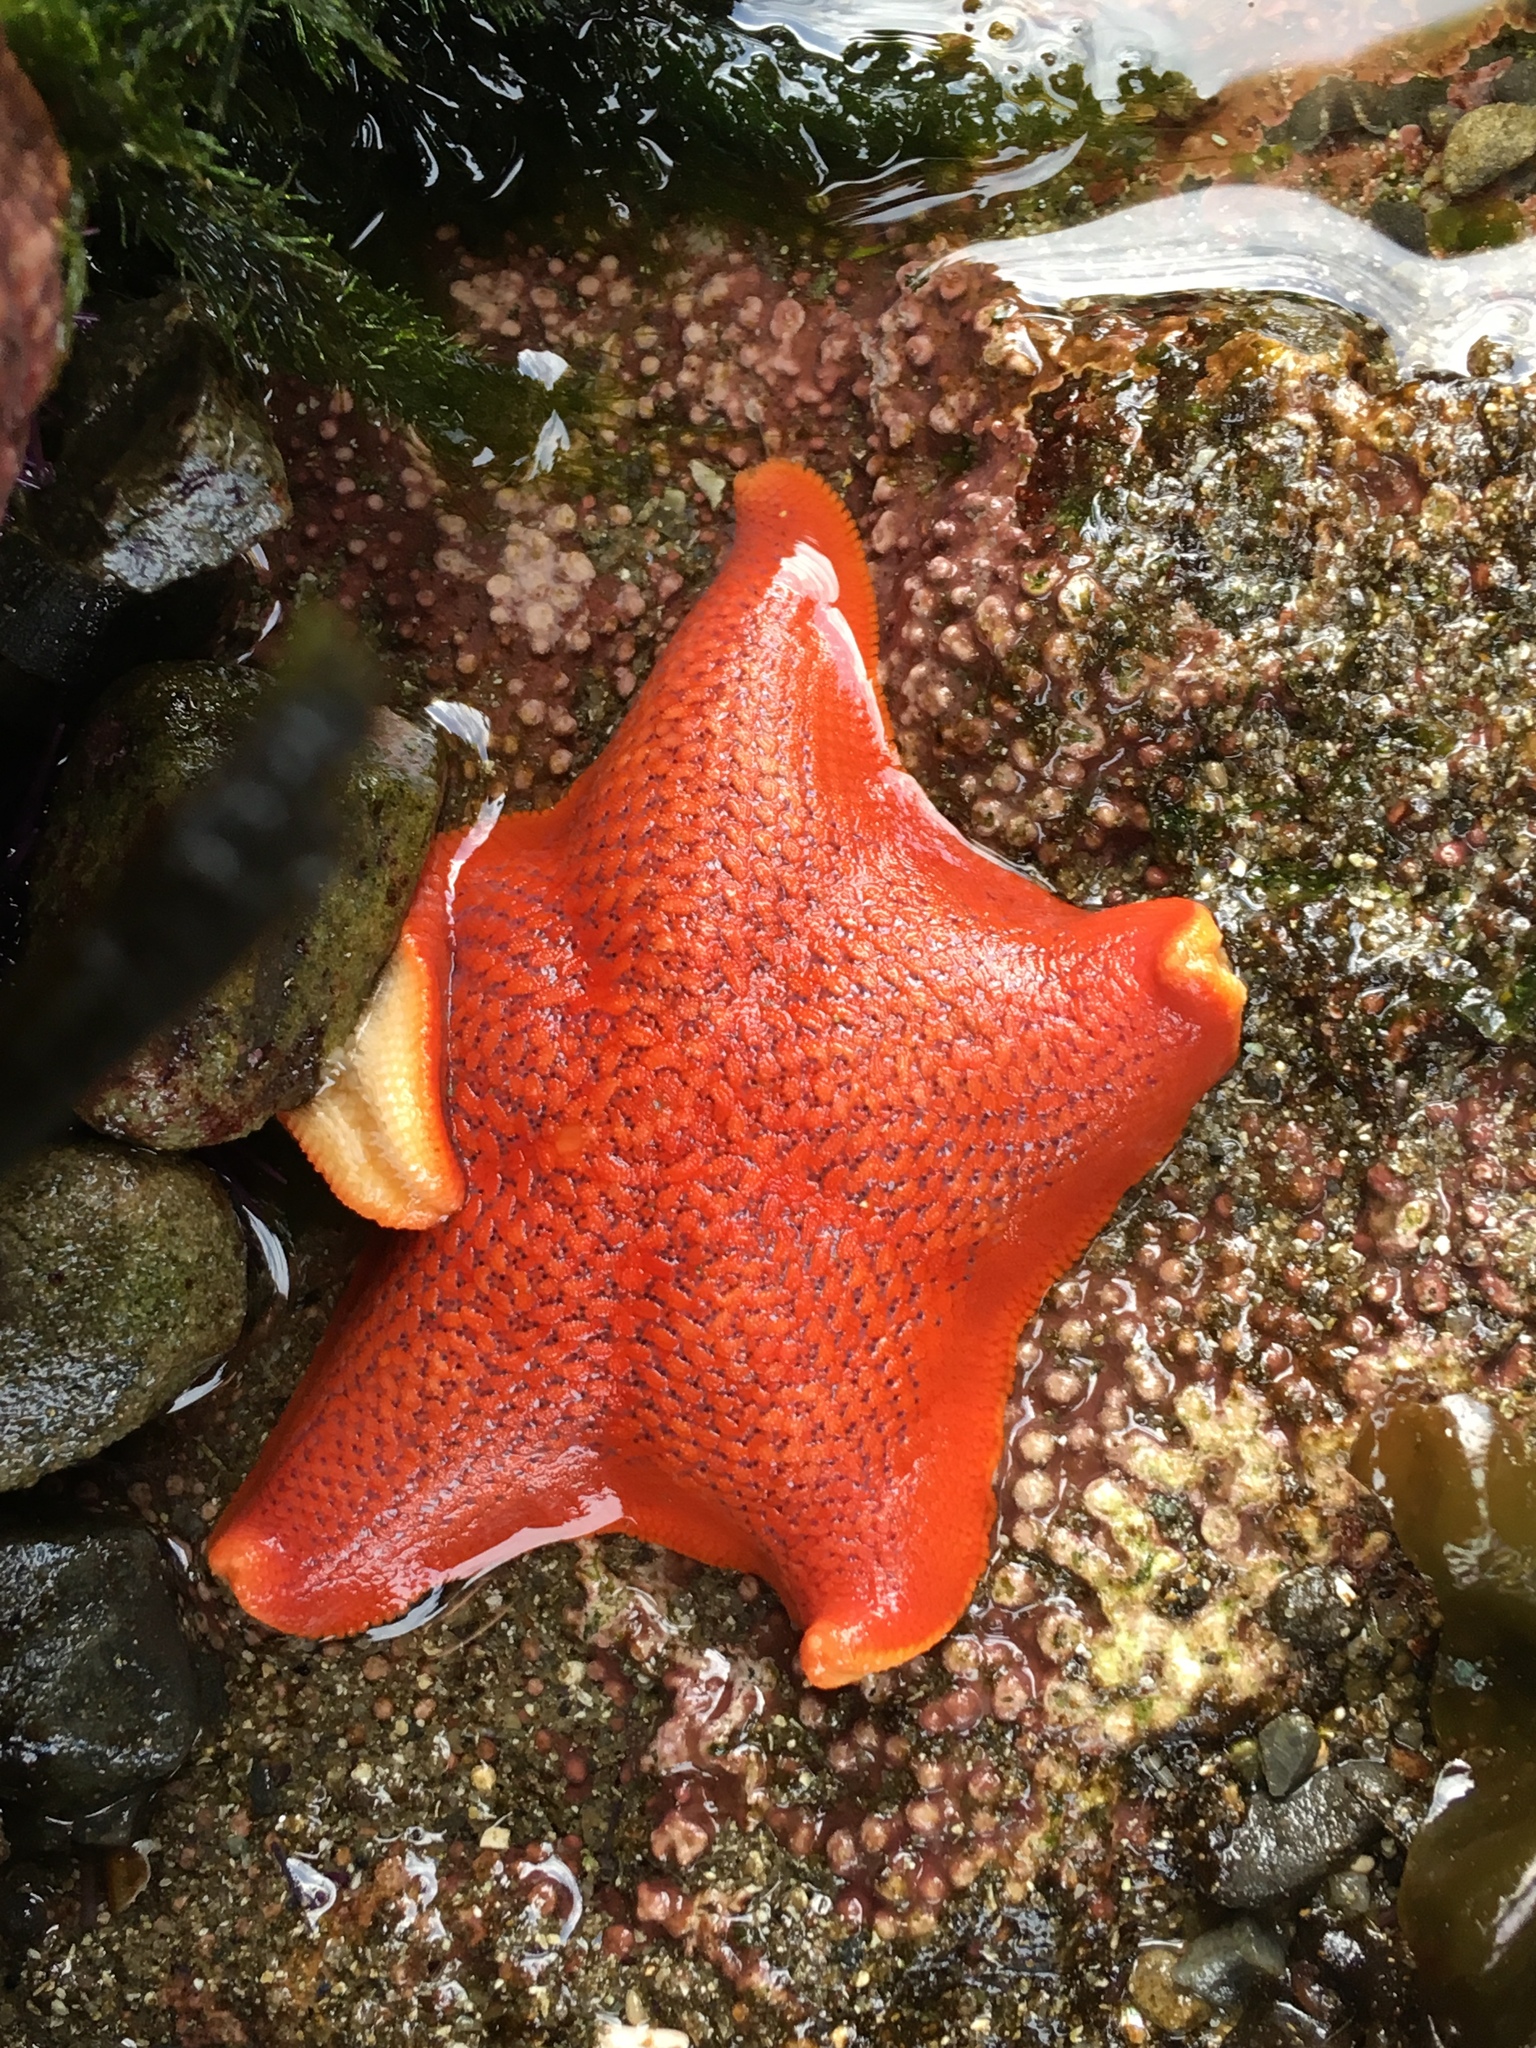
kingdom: Animalia
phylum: Echinodermata
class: Asteroidea
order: Valvatida
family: Asterinidae
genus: Patiria
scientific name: Patiria miniata
